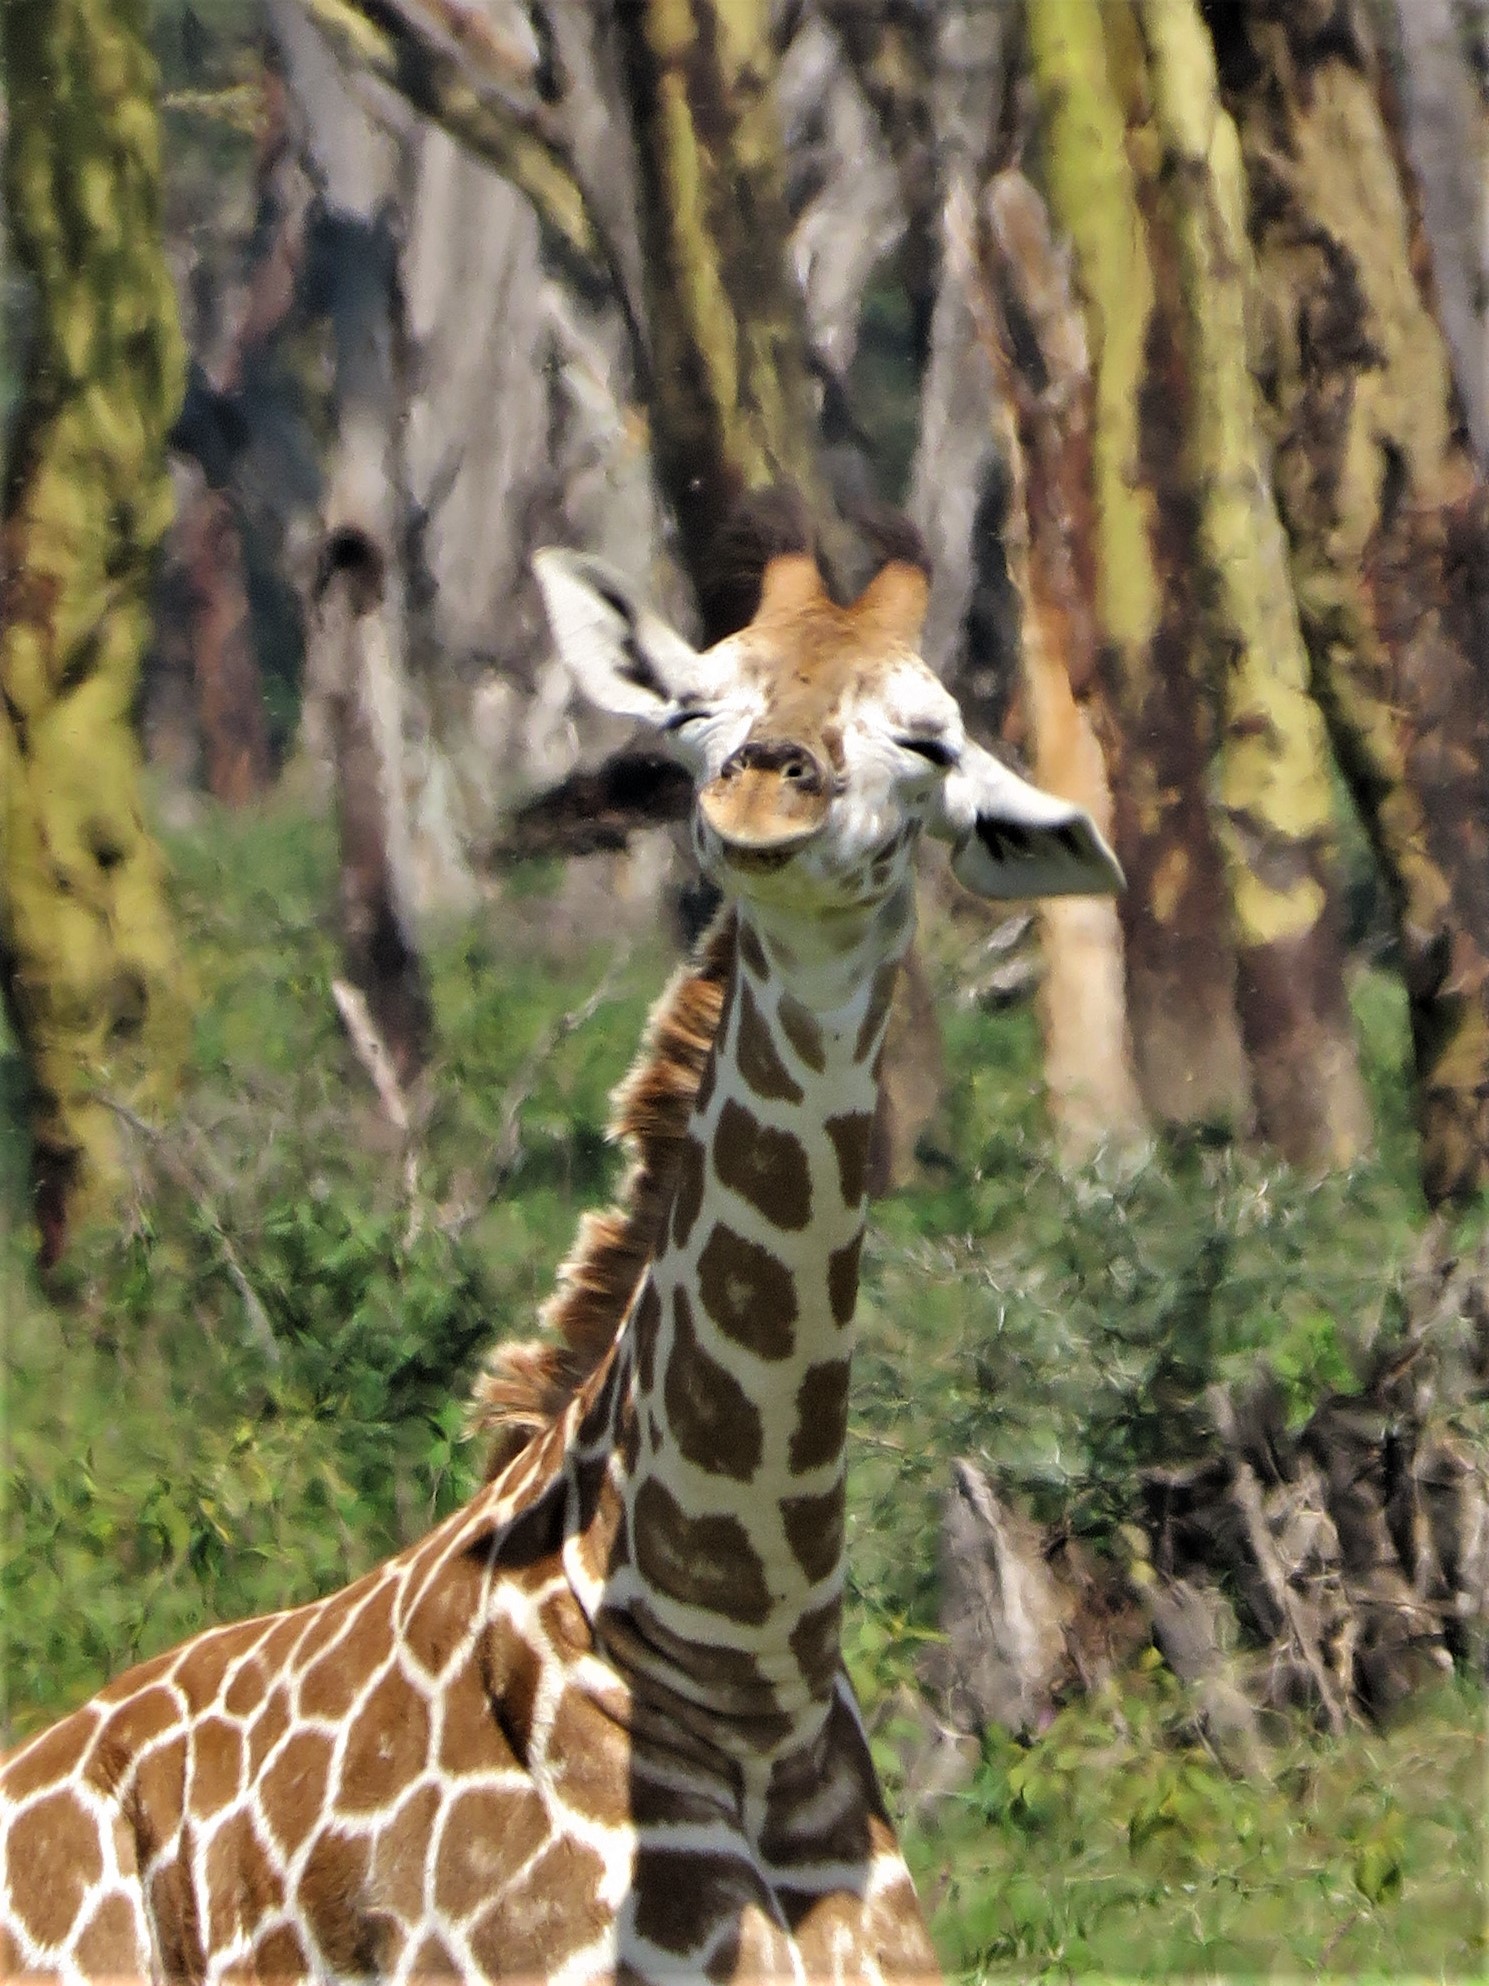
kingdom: Animalia
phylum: Chordata
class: Mammalia
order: Artiodactyla
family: Giraffidae
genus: Giraffa
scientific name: Giraffa camelopardalis
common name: Giraffe
